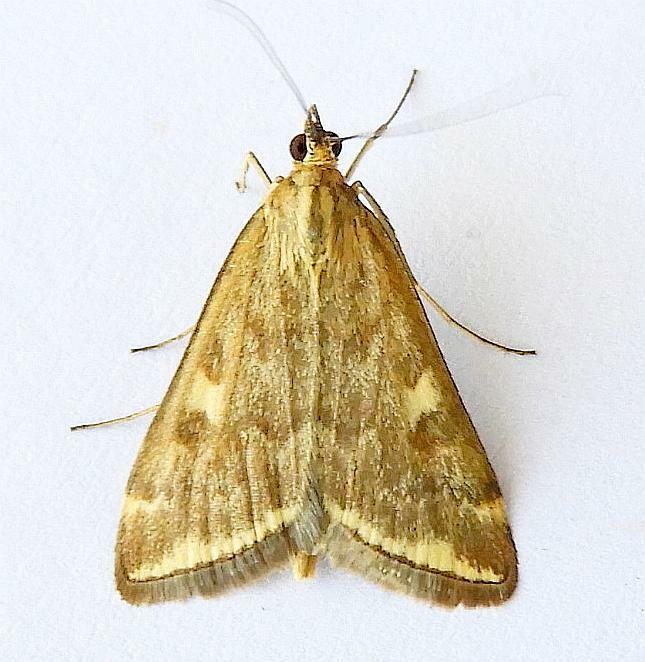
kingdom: Animalia
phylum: Arthropoda
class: Insecta
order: Lepidoptera
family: Crambidae
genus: Loxostege
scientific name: Loxostege
